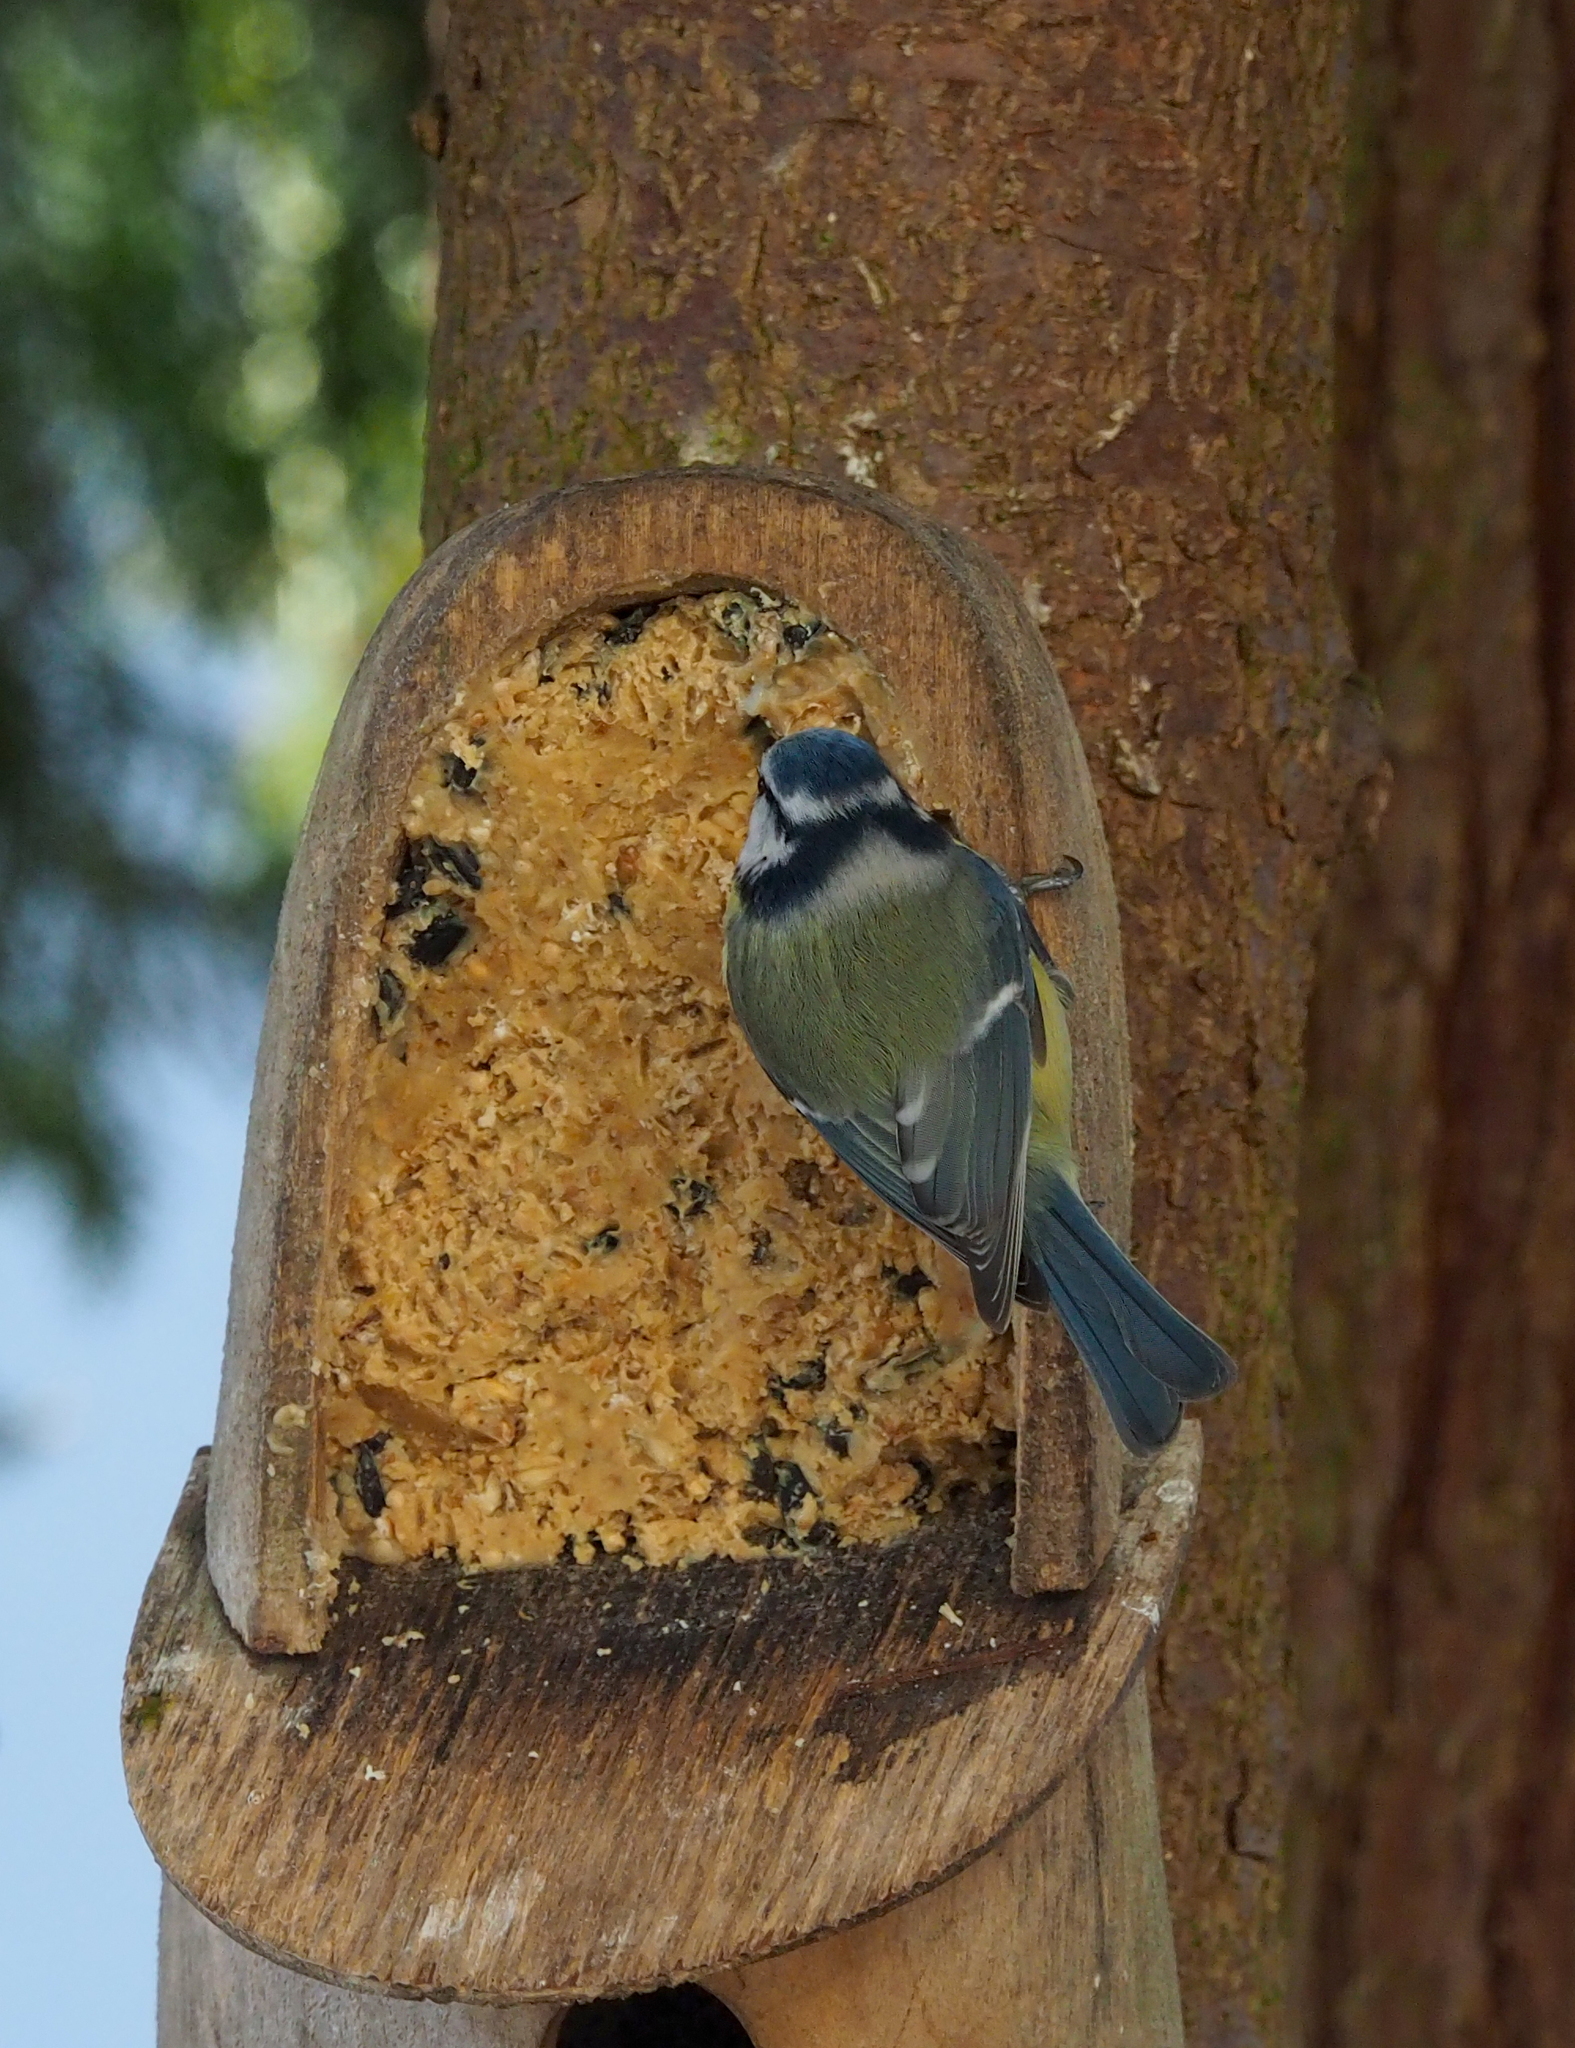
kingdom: Animalia
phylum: Chordata
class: Aves
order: Passeriformes
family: Paridae
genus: Cyanistes
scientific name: Cyanistes caeruleus
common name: Eurasian blue tit
